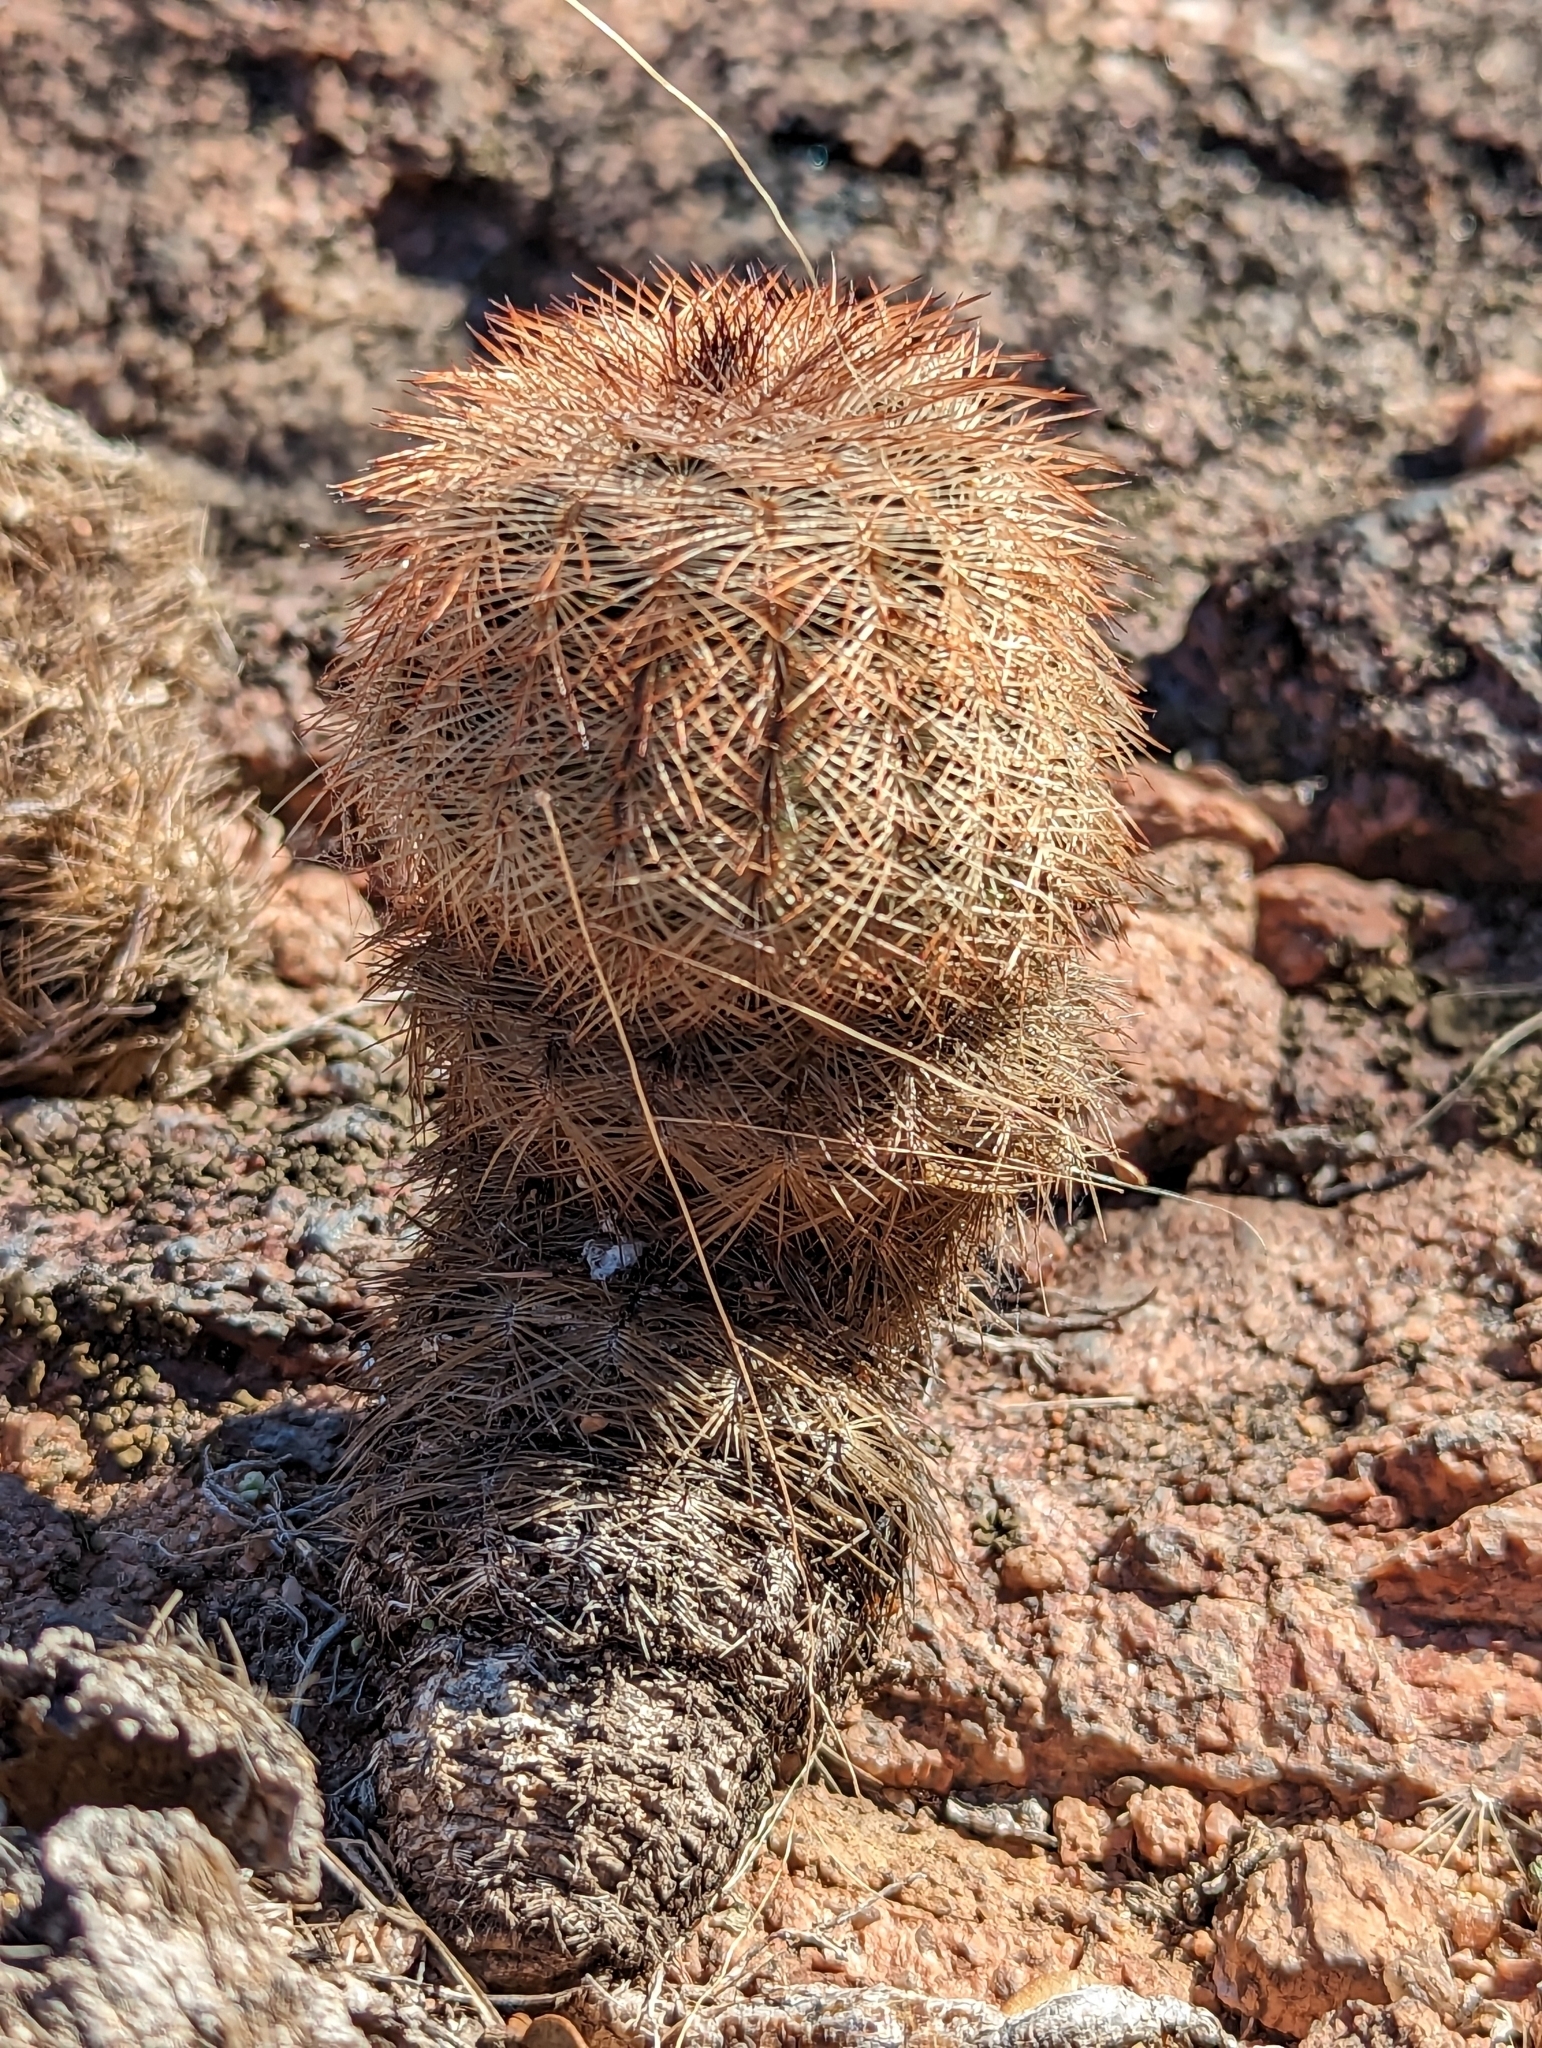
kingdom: Plantae
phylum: Tracheophyta
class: Magnoliopsida
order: Caryophyllales
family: Cactaceae
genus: Echinocereus
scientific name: Echinocereus reichenbachii
